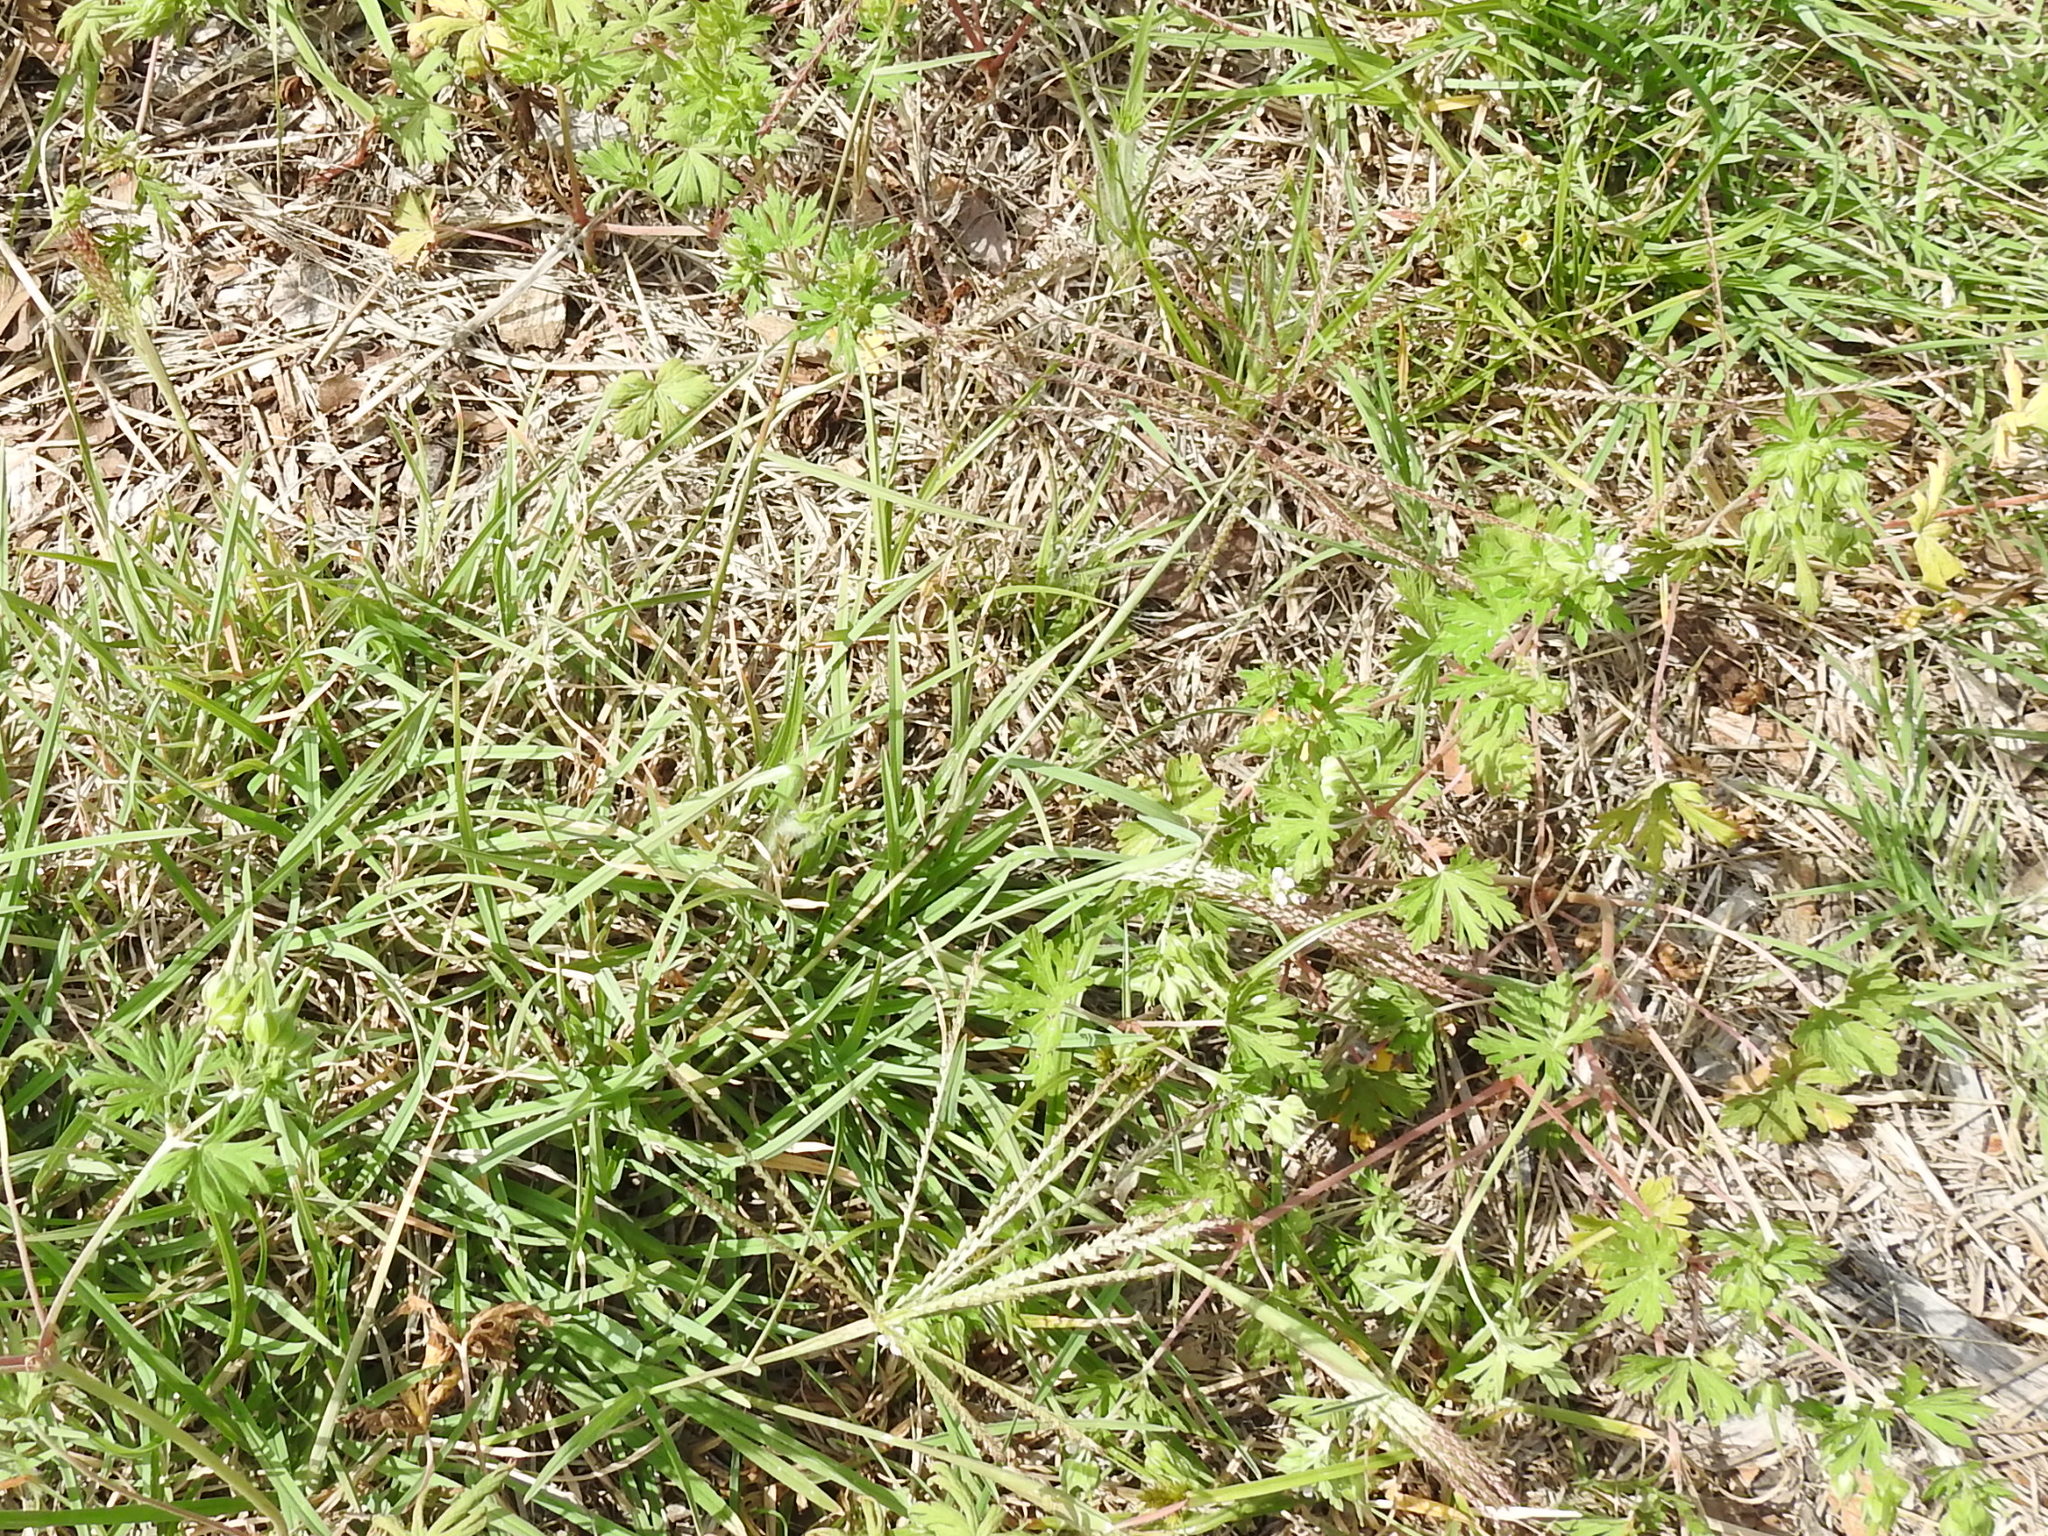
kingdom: Plantae
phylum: Tracheophyta
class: Liliopsida
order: Poales
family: Poaceae
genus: Chloris
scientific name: Chloris verticillata
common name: Tumble windmill grass
